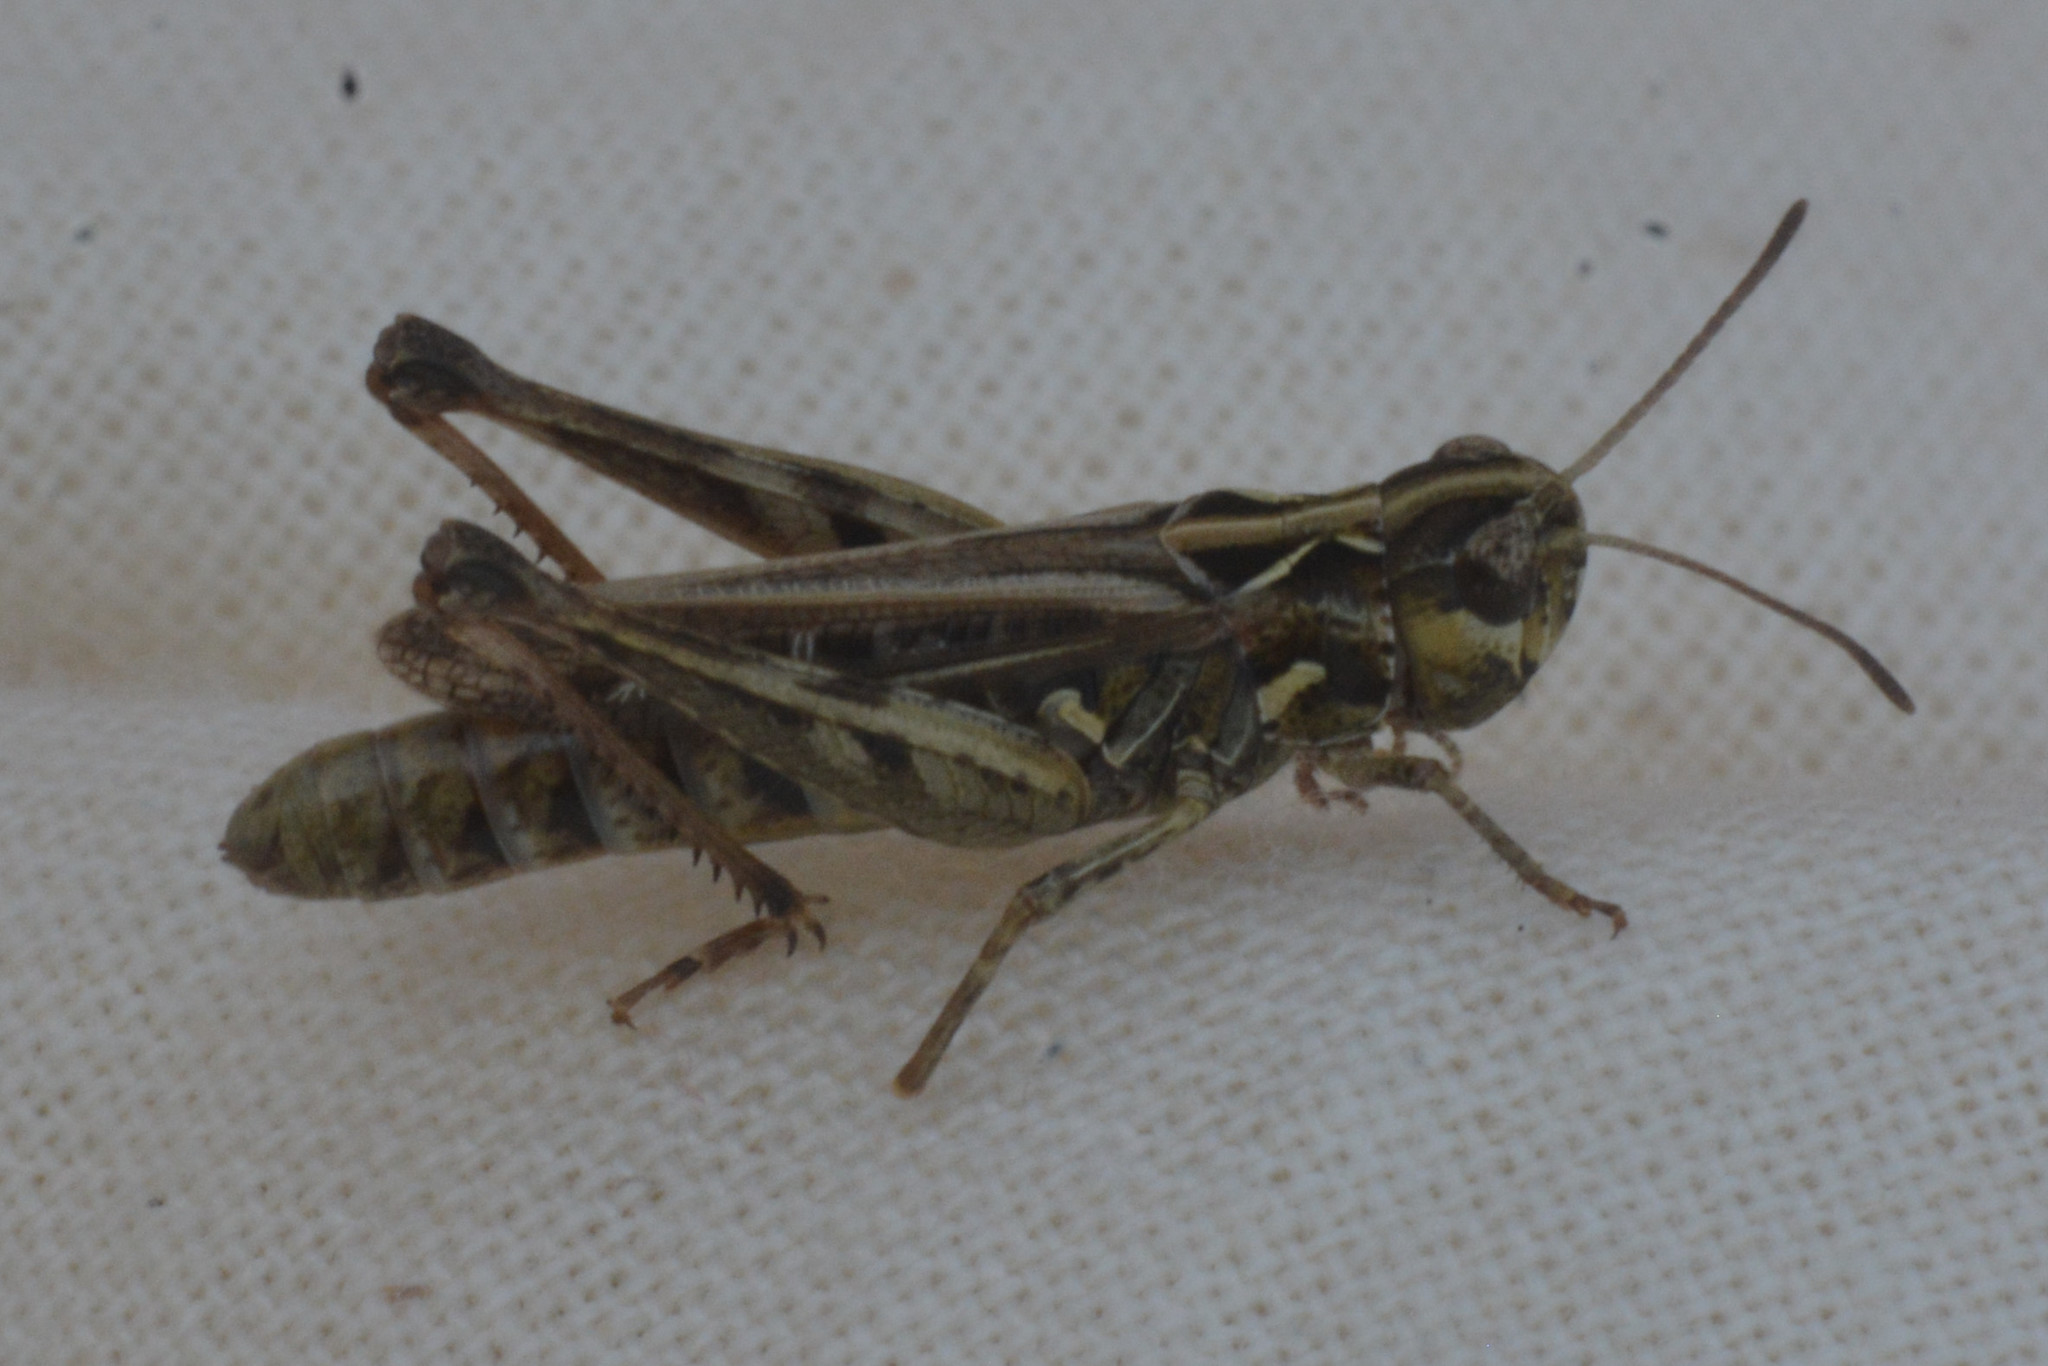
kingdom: Animalia
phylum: Arthropoda
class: Insecta
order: Orthoptera
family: Acrididae
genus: Myrmeleotettix
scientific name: Myrmeleotettix maculatus
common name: Mottled grasshopper
